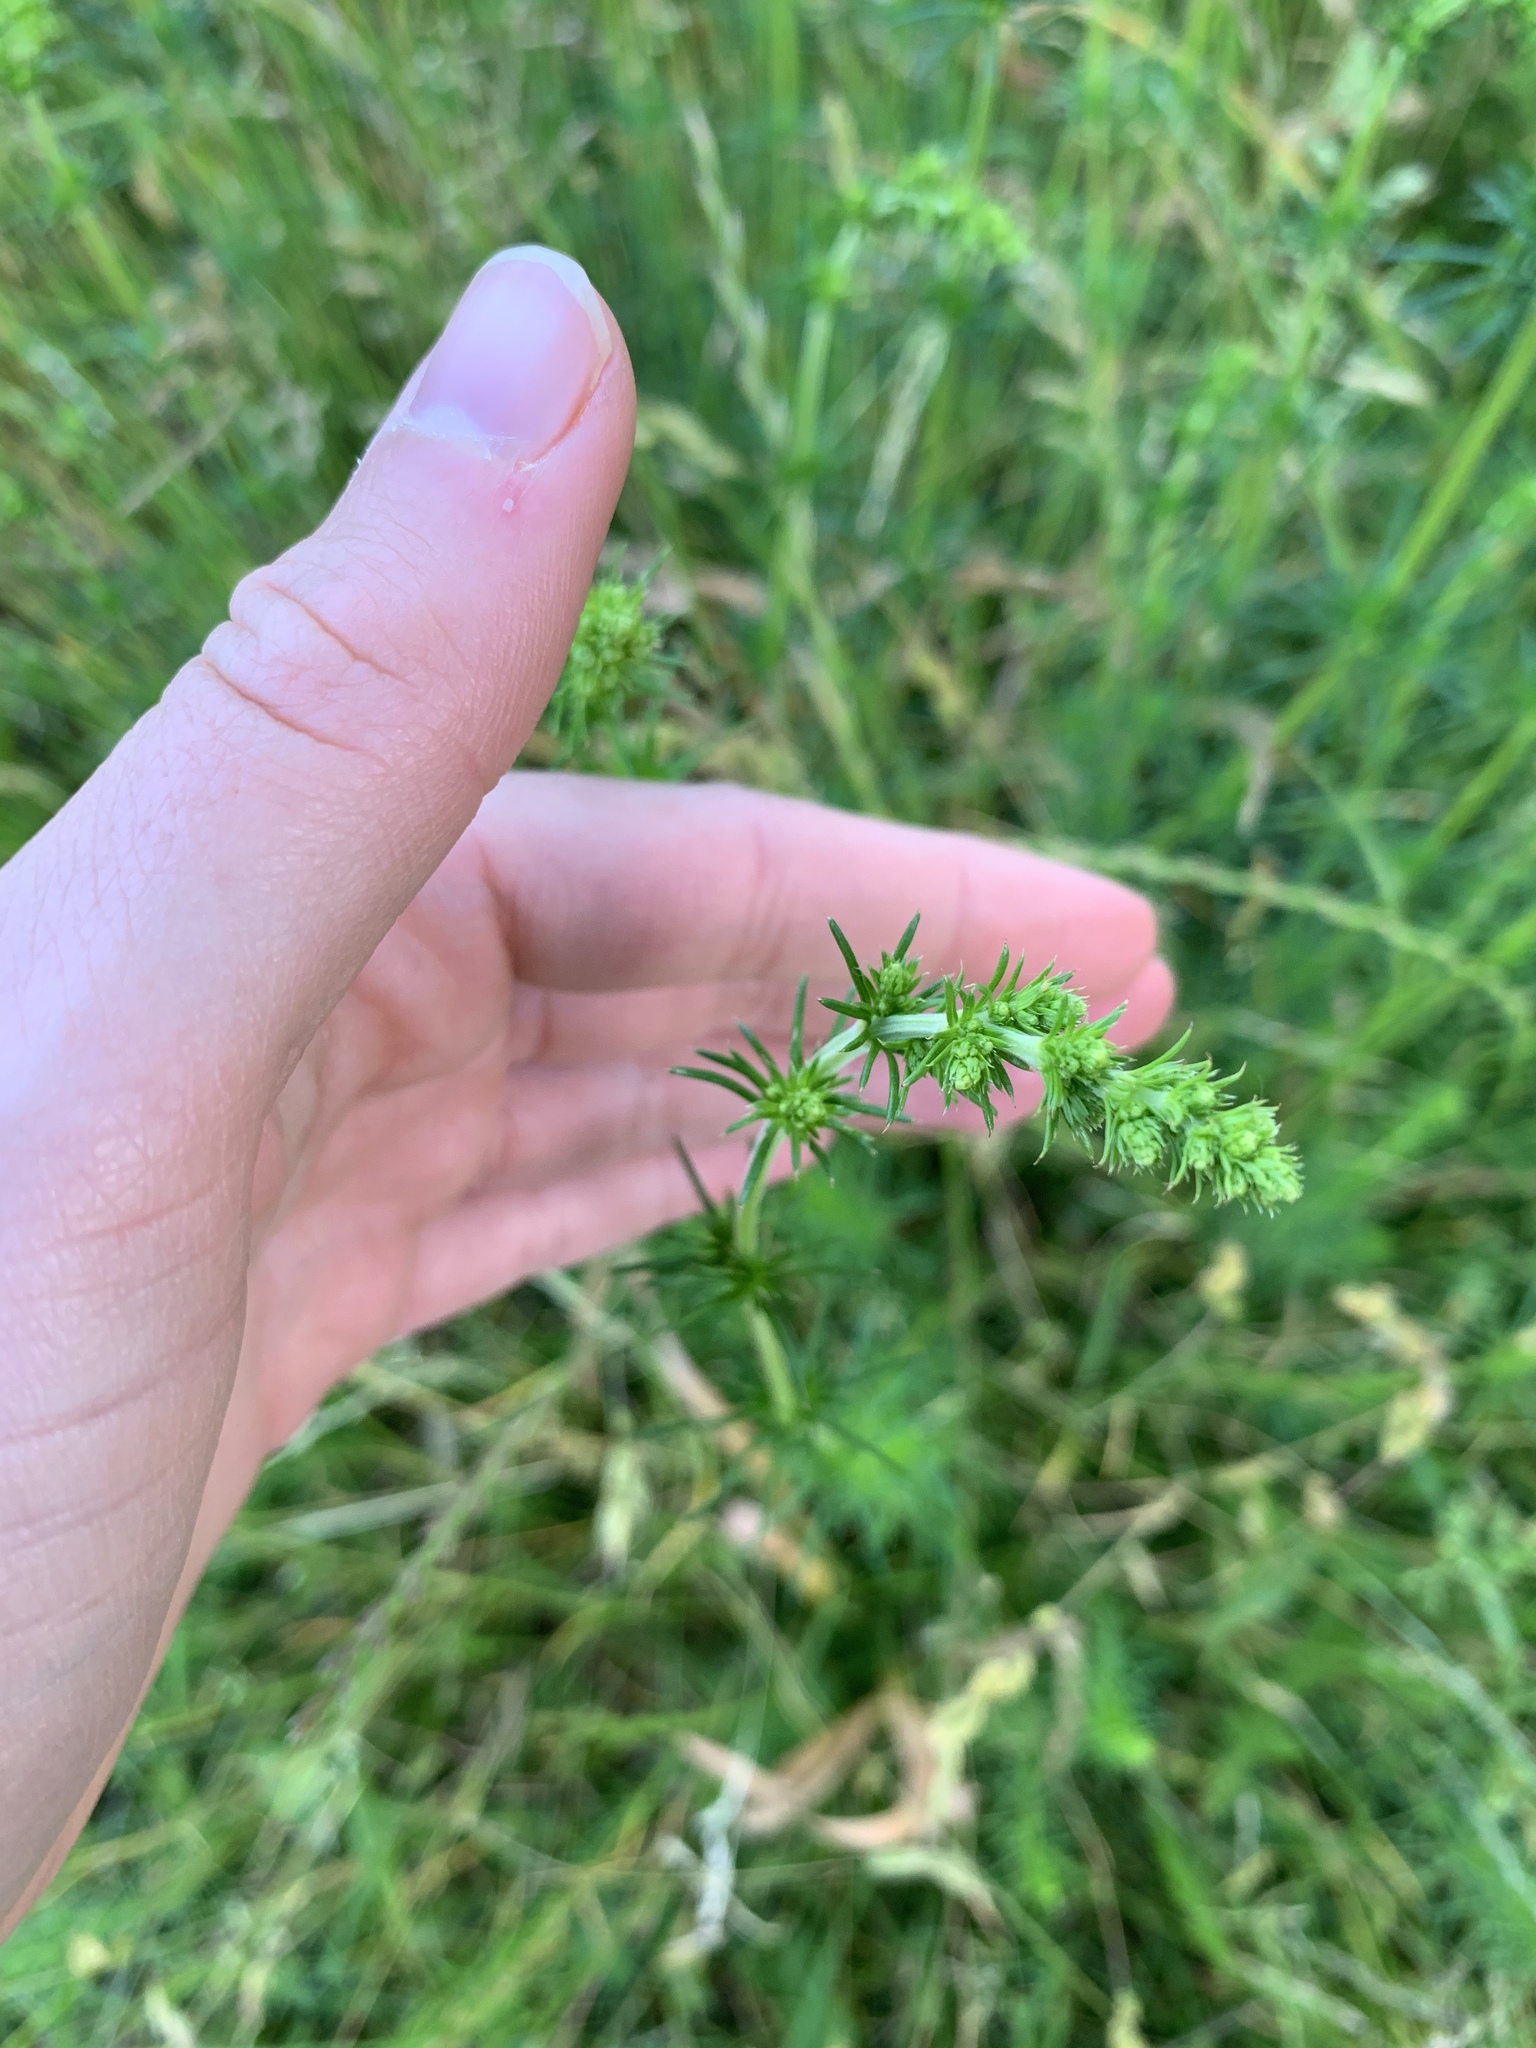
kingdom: Plantae
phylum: Tracheophyta
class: Magnoliopsida
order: Gentianales
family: Rubiaceae
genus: Galium
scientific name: Galium verum
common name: Lady's bedstraw
